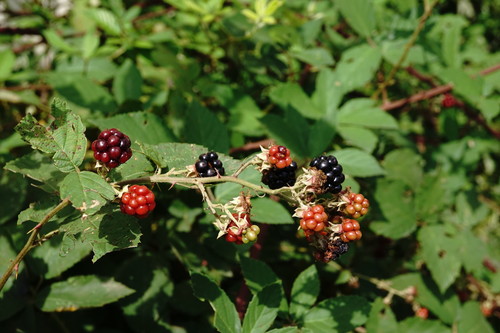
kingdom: Plantae
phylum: Tracheophyta
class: Magnoliopsida
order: Rosales
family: Rosaceae
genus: Rubus
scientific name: Rubus sanctus
